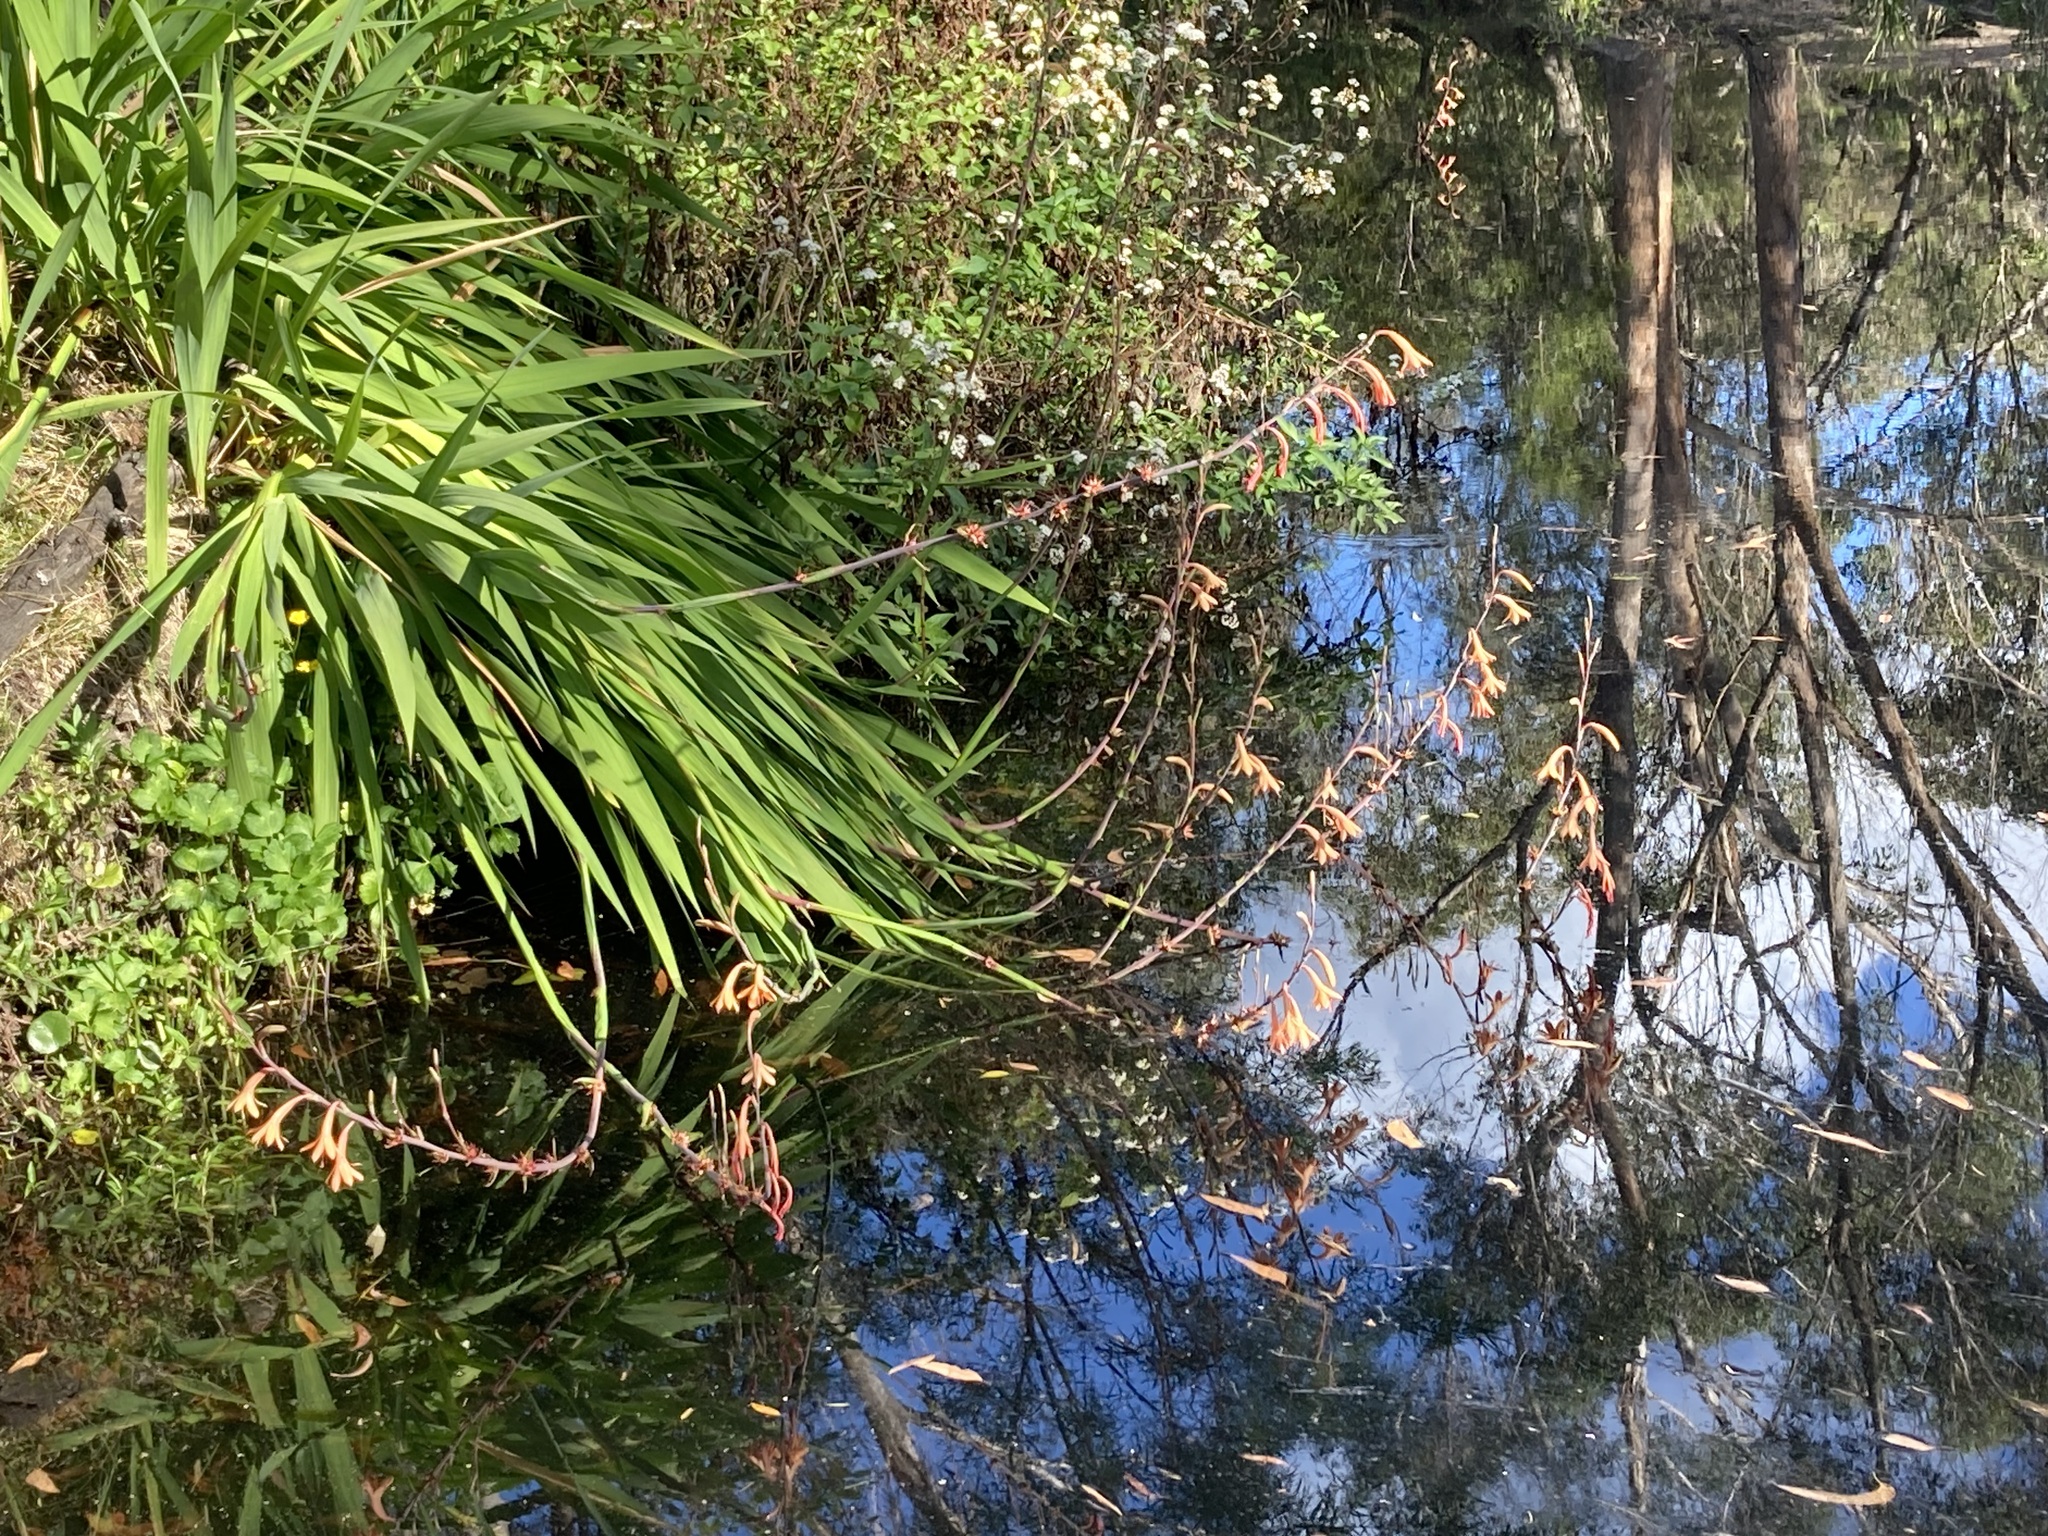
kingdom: Plantae
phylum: Tracheophyta
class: Liliopsida
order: Asparagales
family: Iridaceae
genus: Watsonia
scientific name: Watsonia meriana
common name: Bulbil bugle-lily
